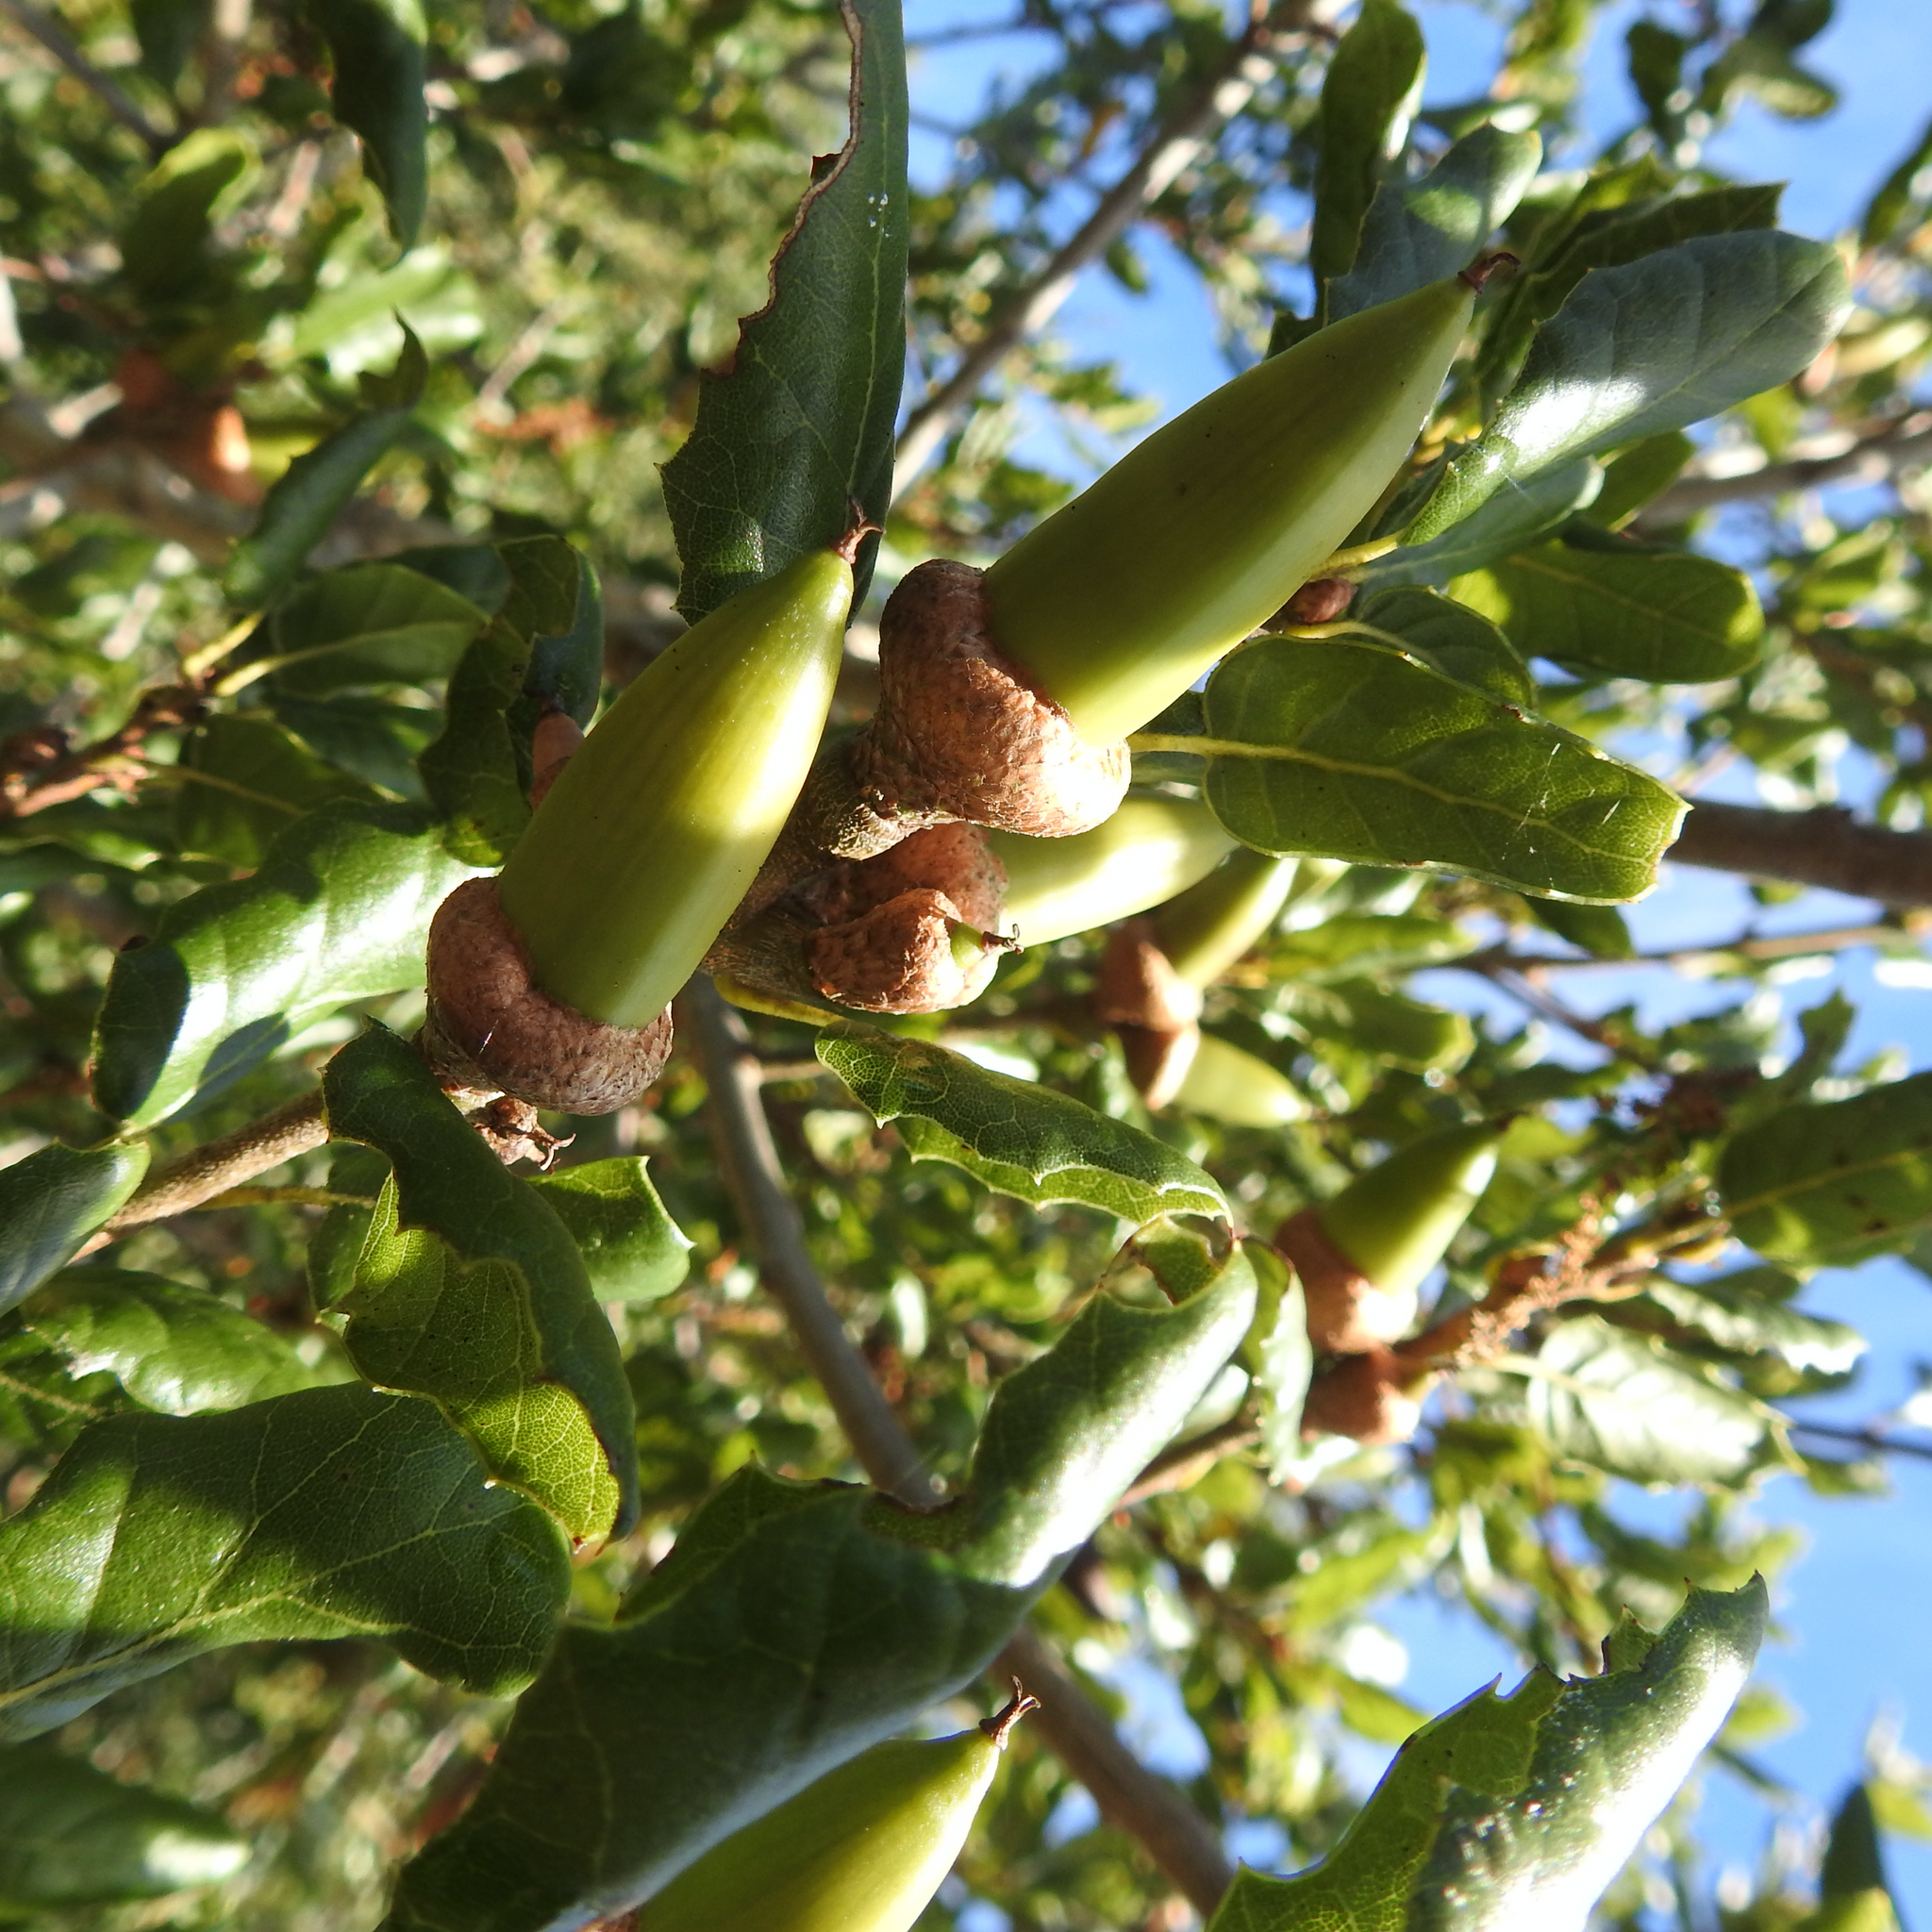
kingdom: Plantae
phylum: Tracheophyta
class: Magnoliopsida
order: Fagales
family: Fagaceae
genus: Quercus
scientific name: Quercus agrifolia
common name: California live oak
